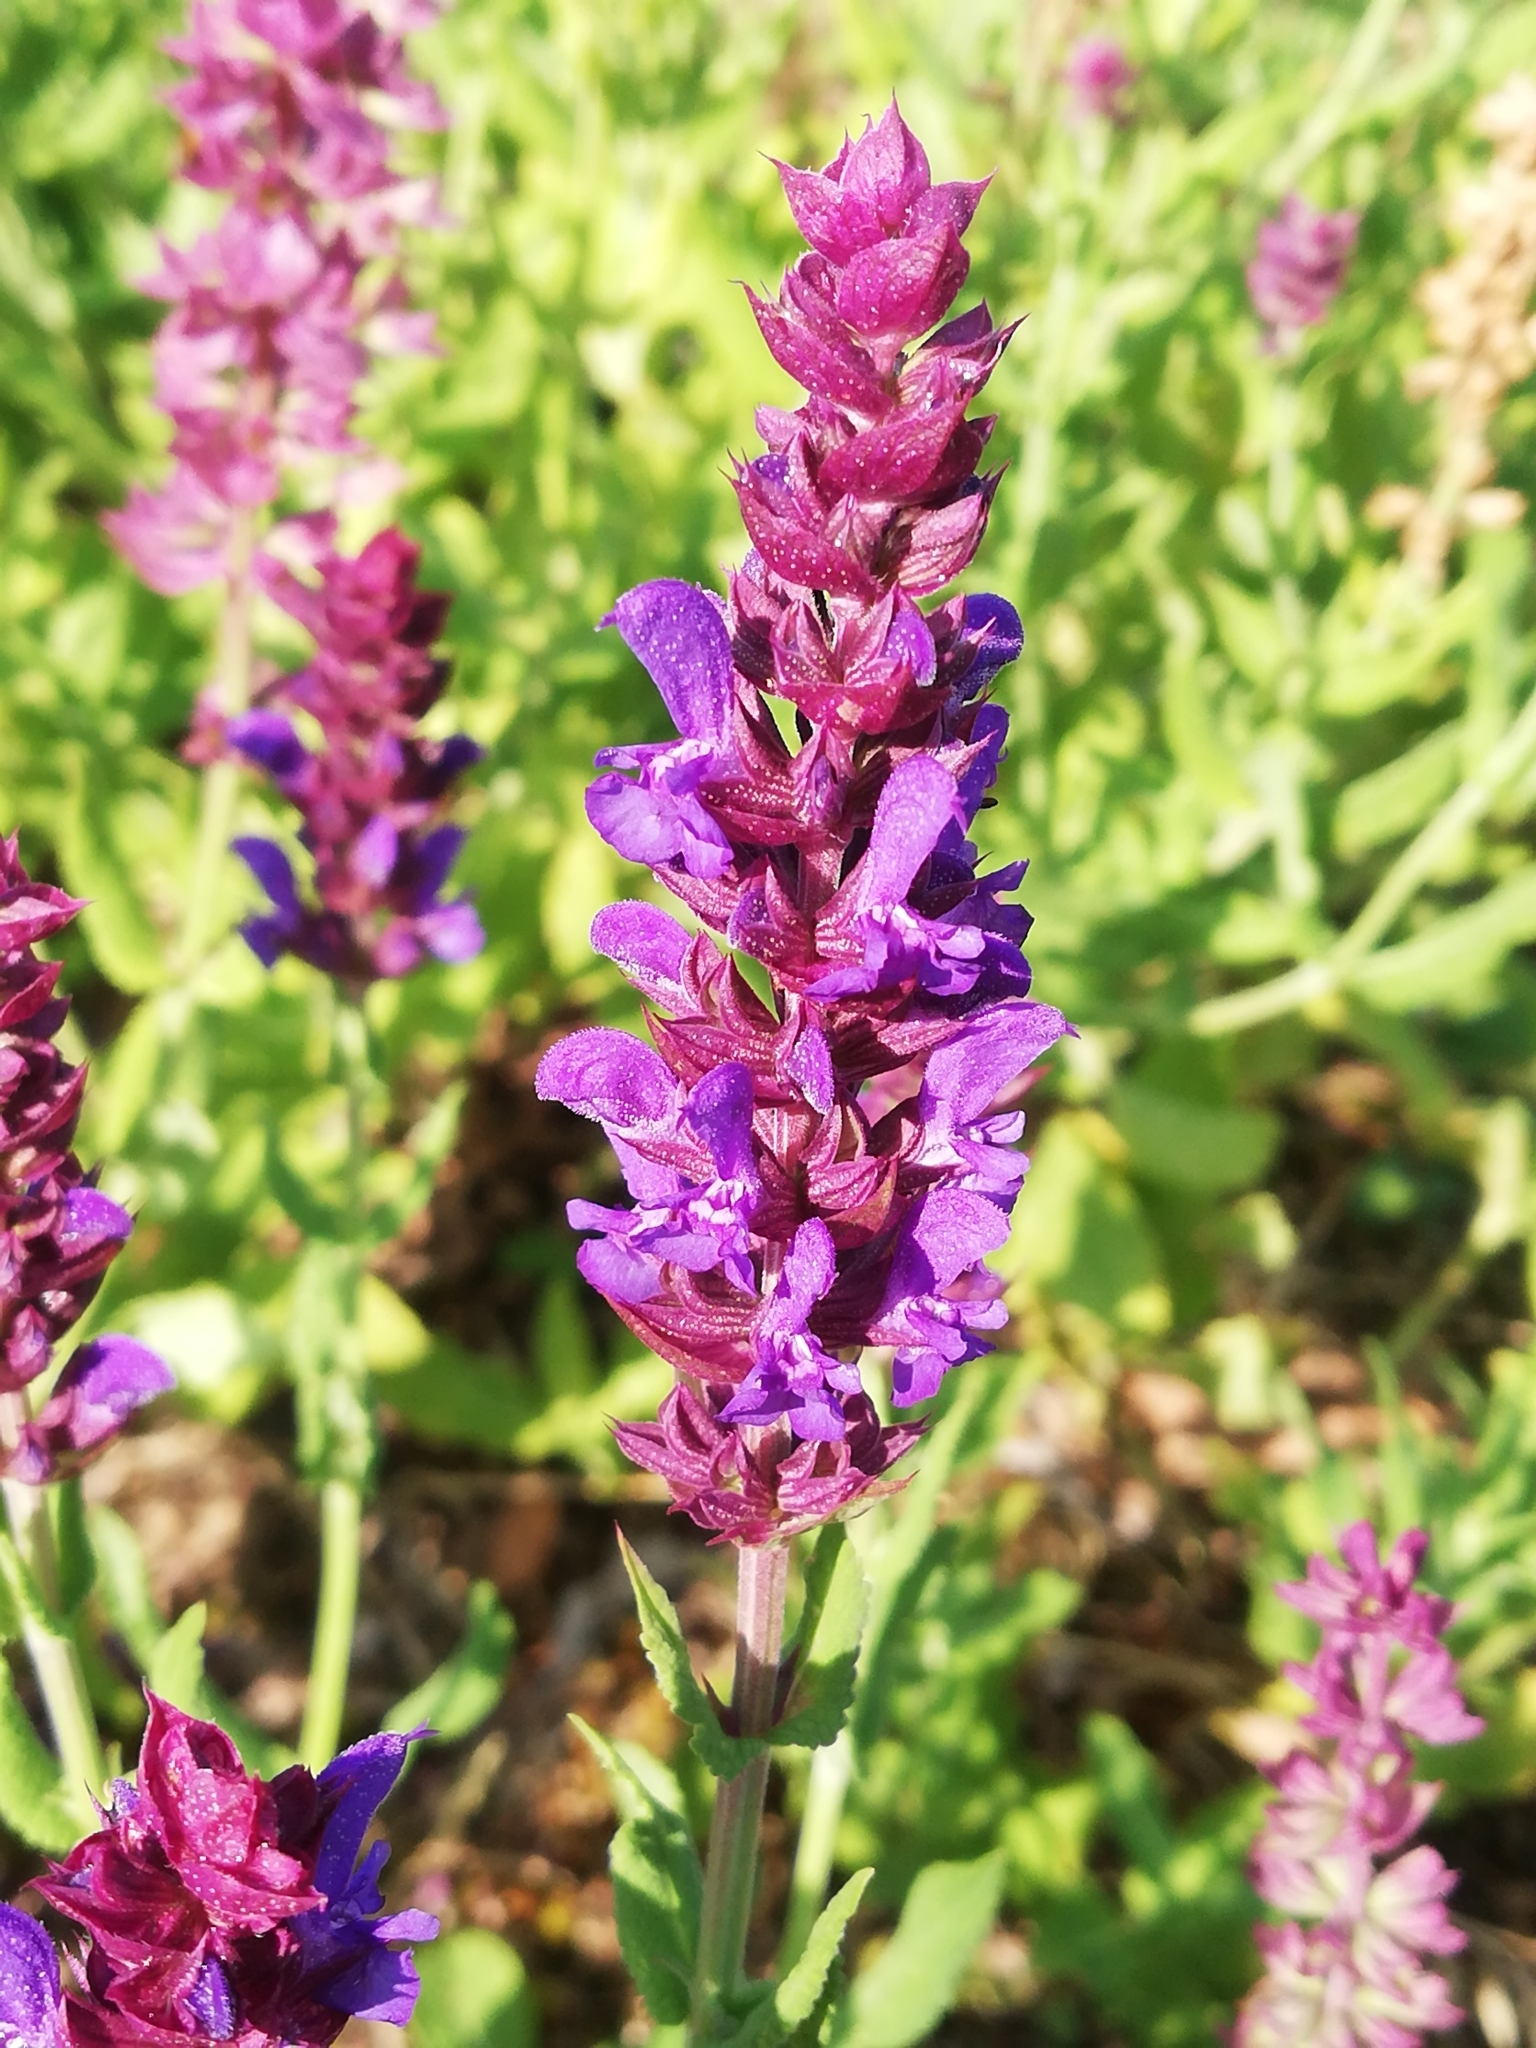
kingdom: Plantae
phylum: Tracheophyta
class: Magnoliopsida
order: Lamiales
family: Lamiaceae
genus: Salvia
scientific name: Salvia nemorosa
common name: Balkan clary
